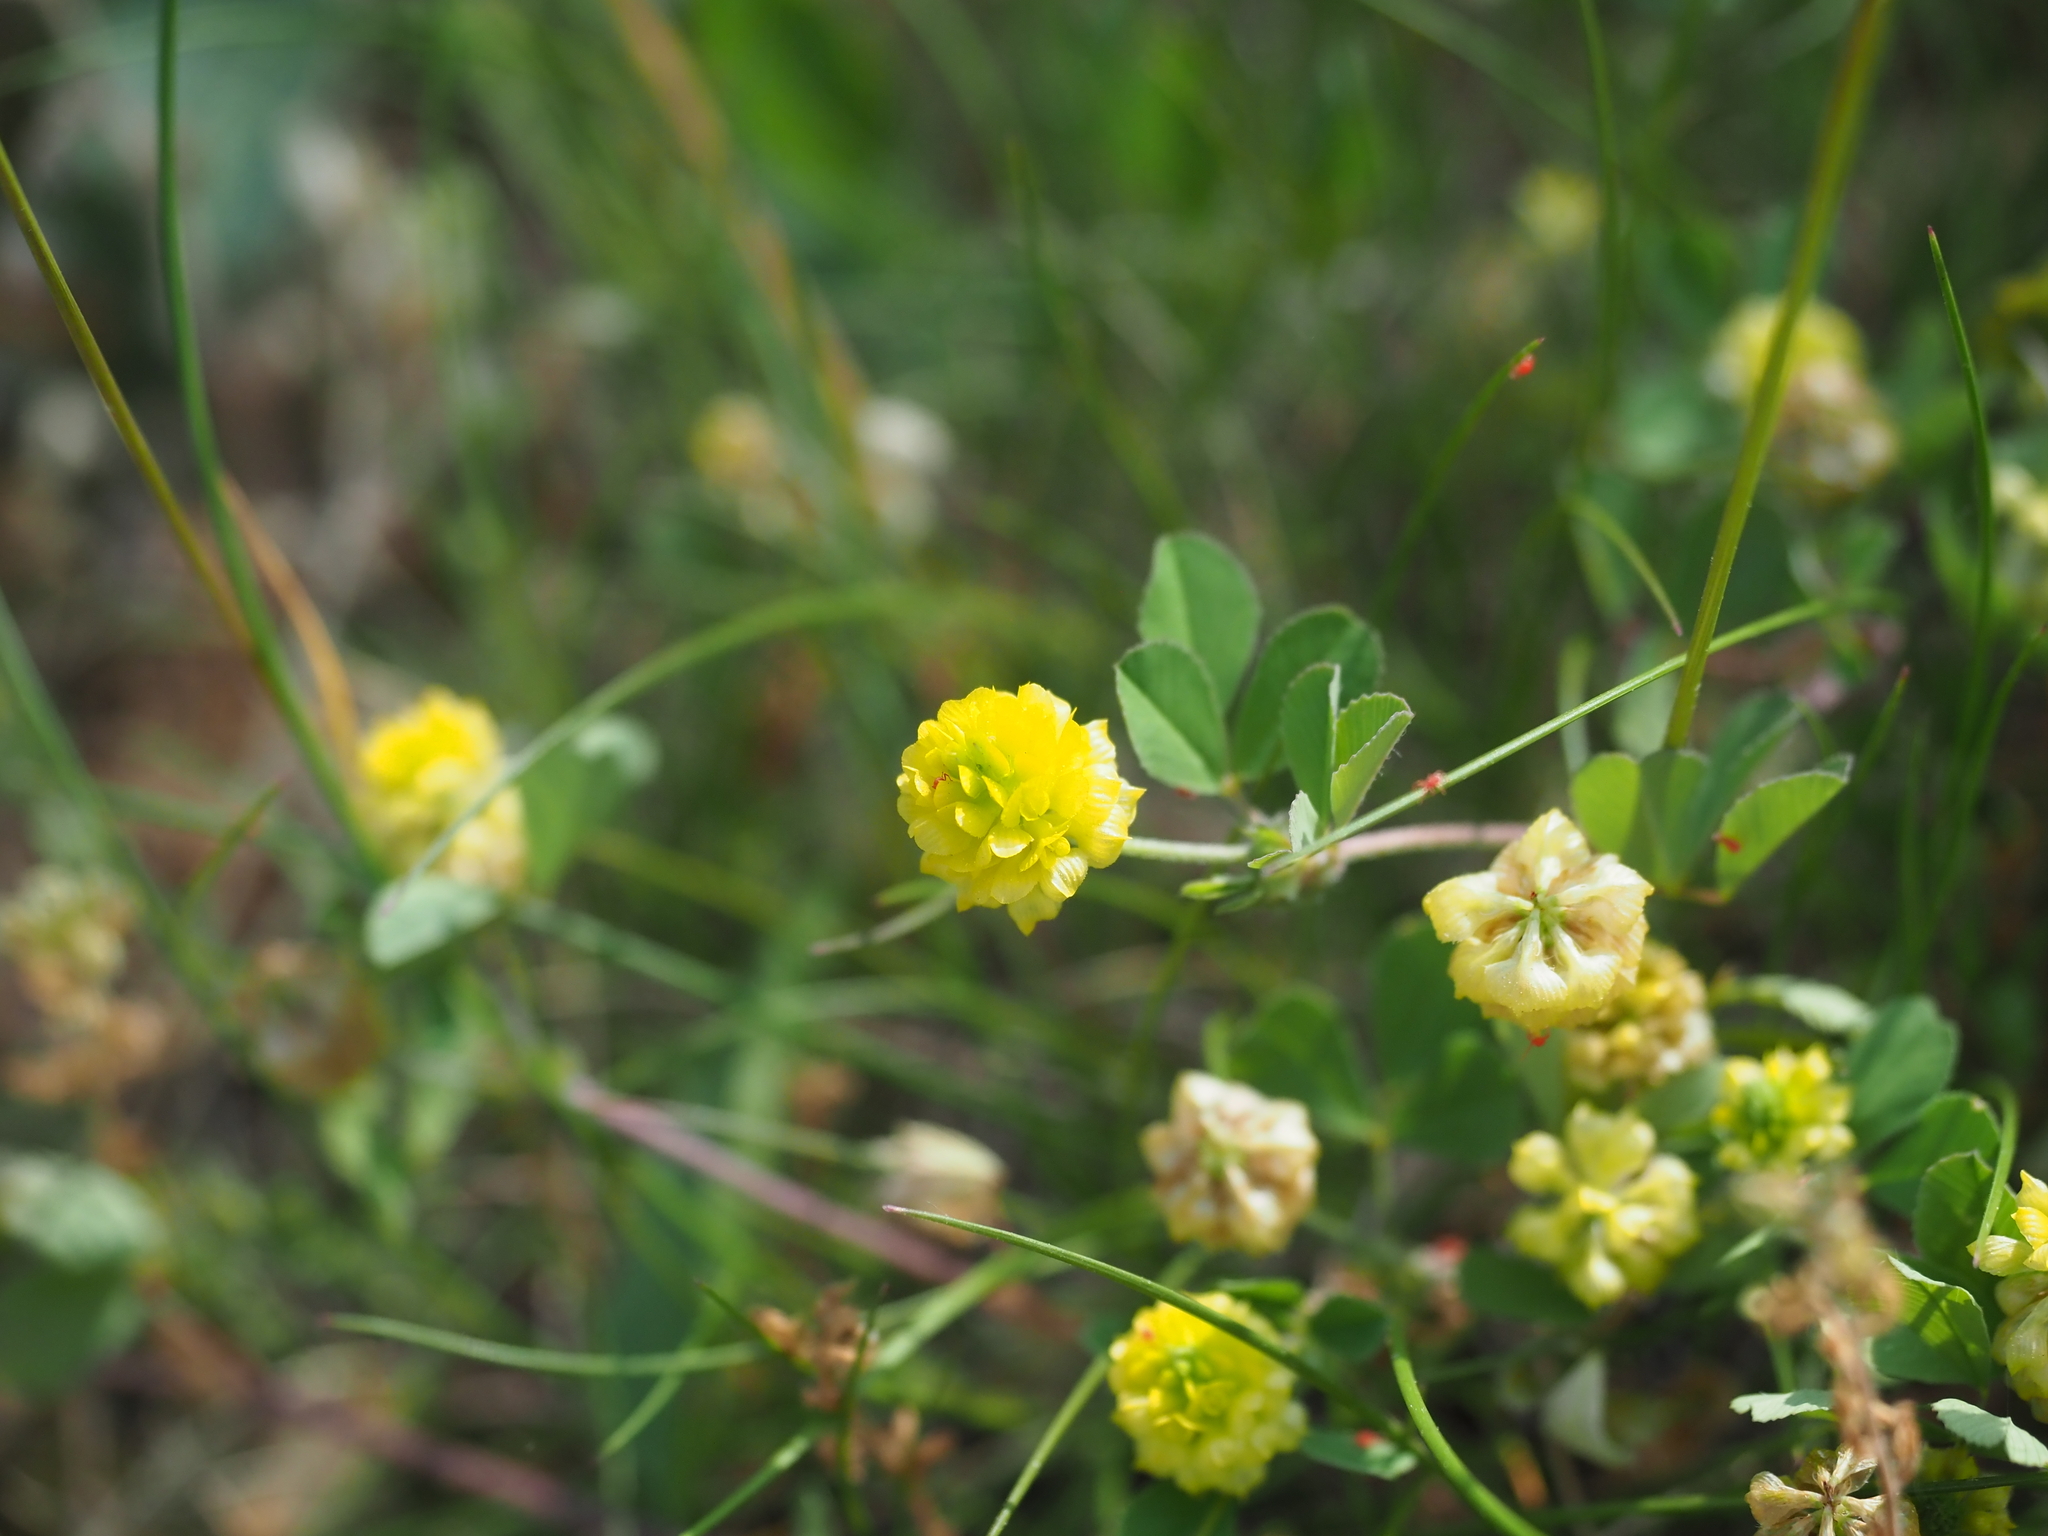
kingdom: Plantae
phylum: Tracheophyta
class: Magnoliopsida
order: Fabales
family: Fabaceae
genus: Trifolium
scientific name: Trifolium campestre
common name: Field clover
